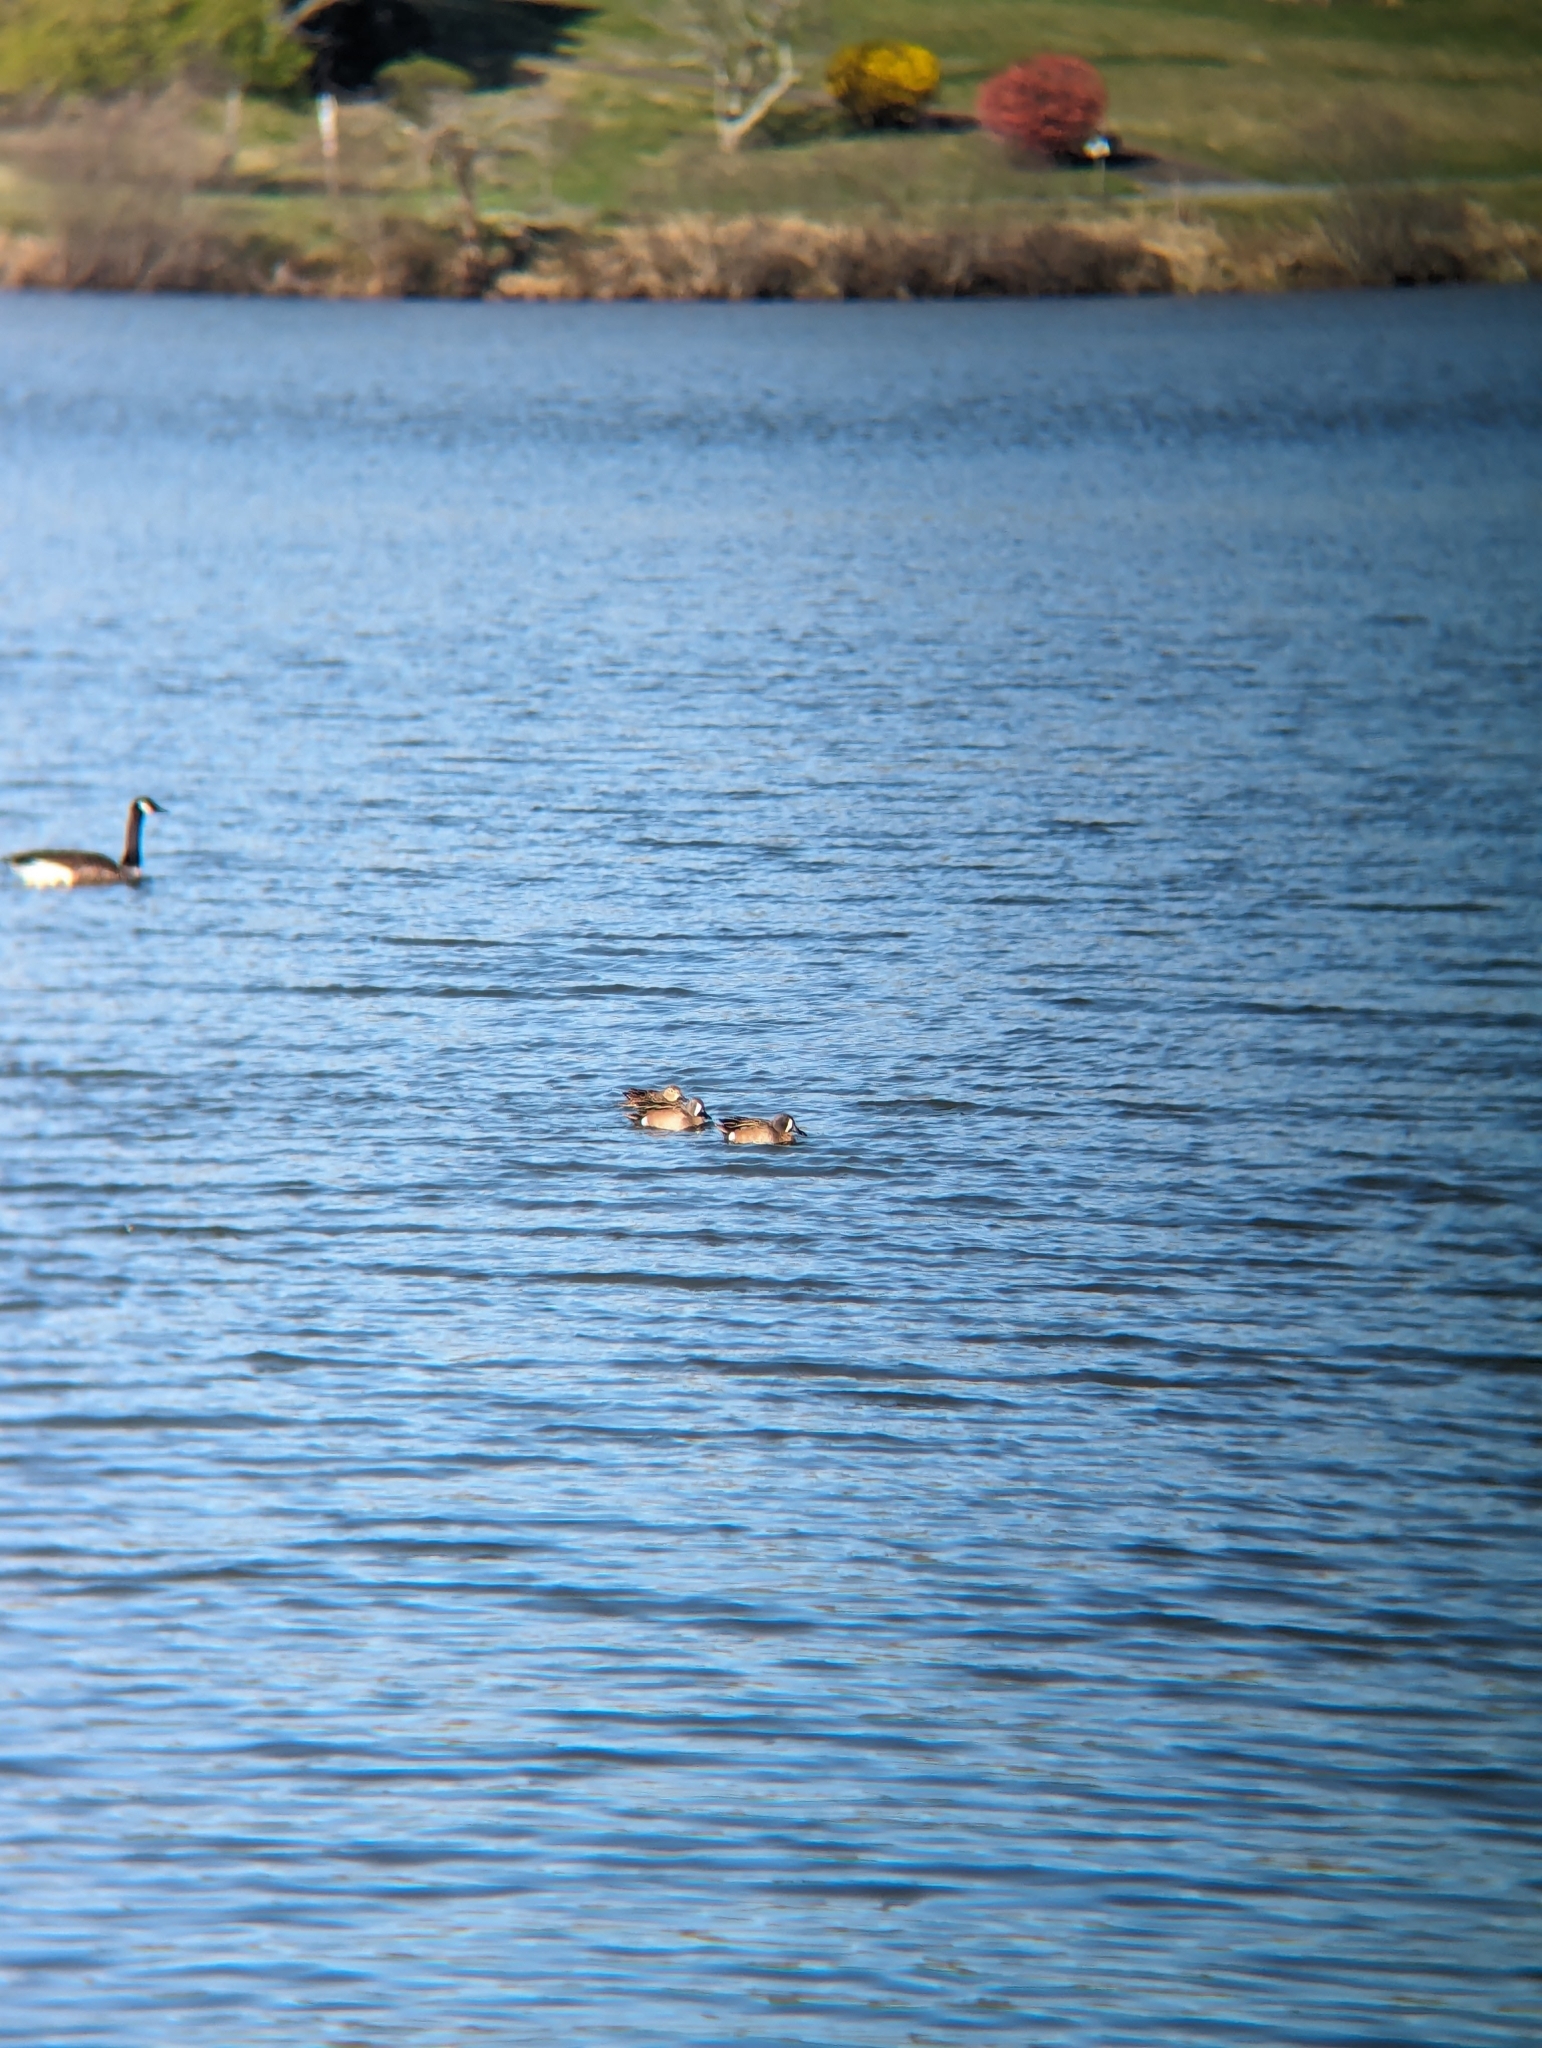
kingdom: Animalia
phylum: Chordata
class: Aves
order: Anseriformes
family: Anatidae
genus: Spatula
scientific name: Spatula discors
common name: Blue-winged teal
